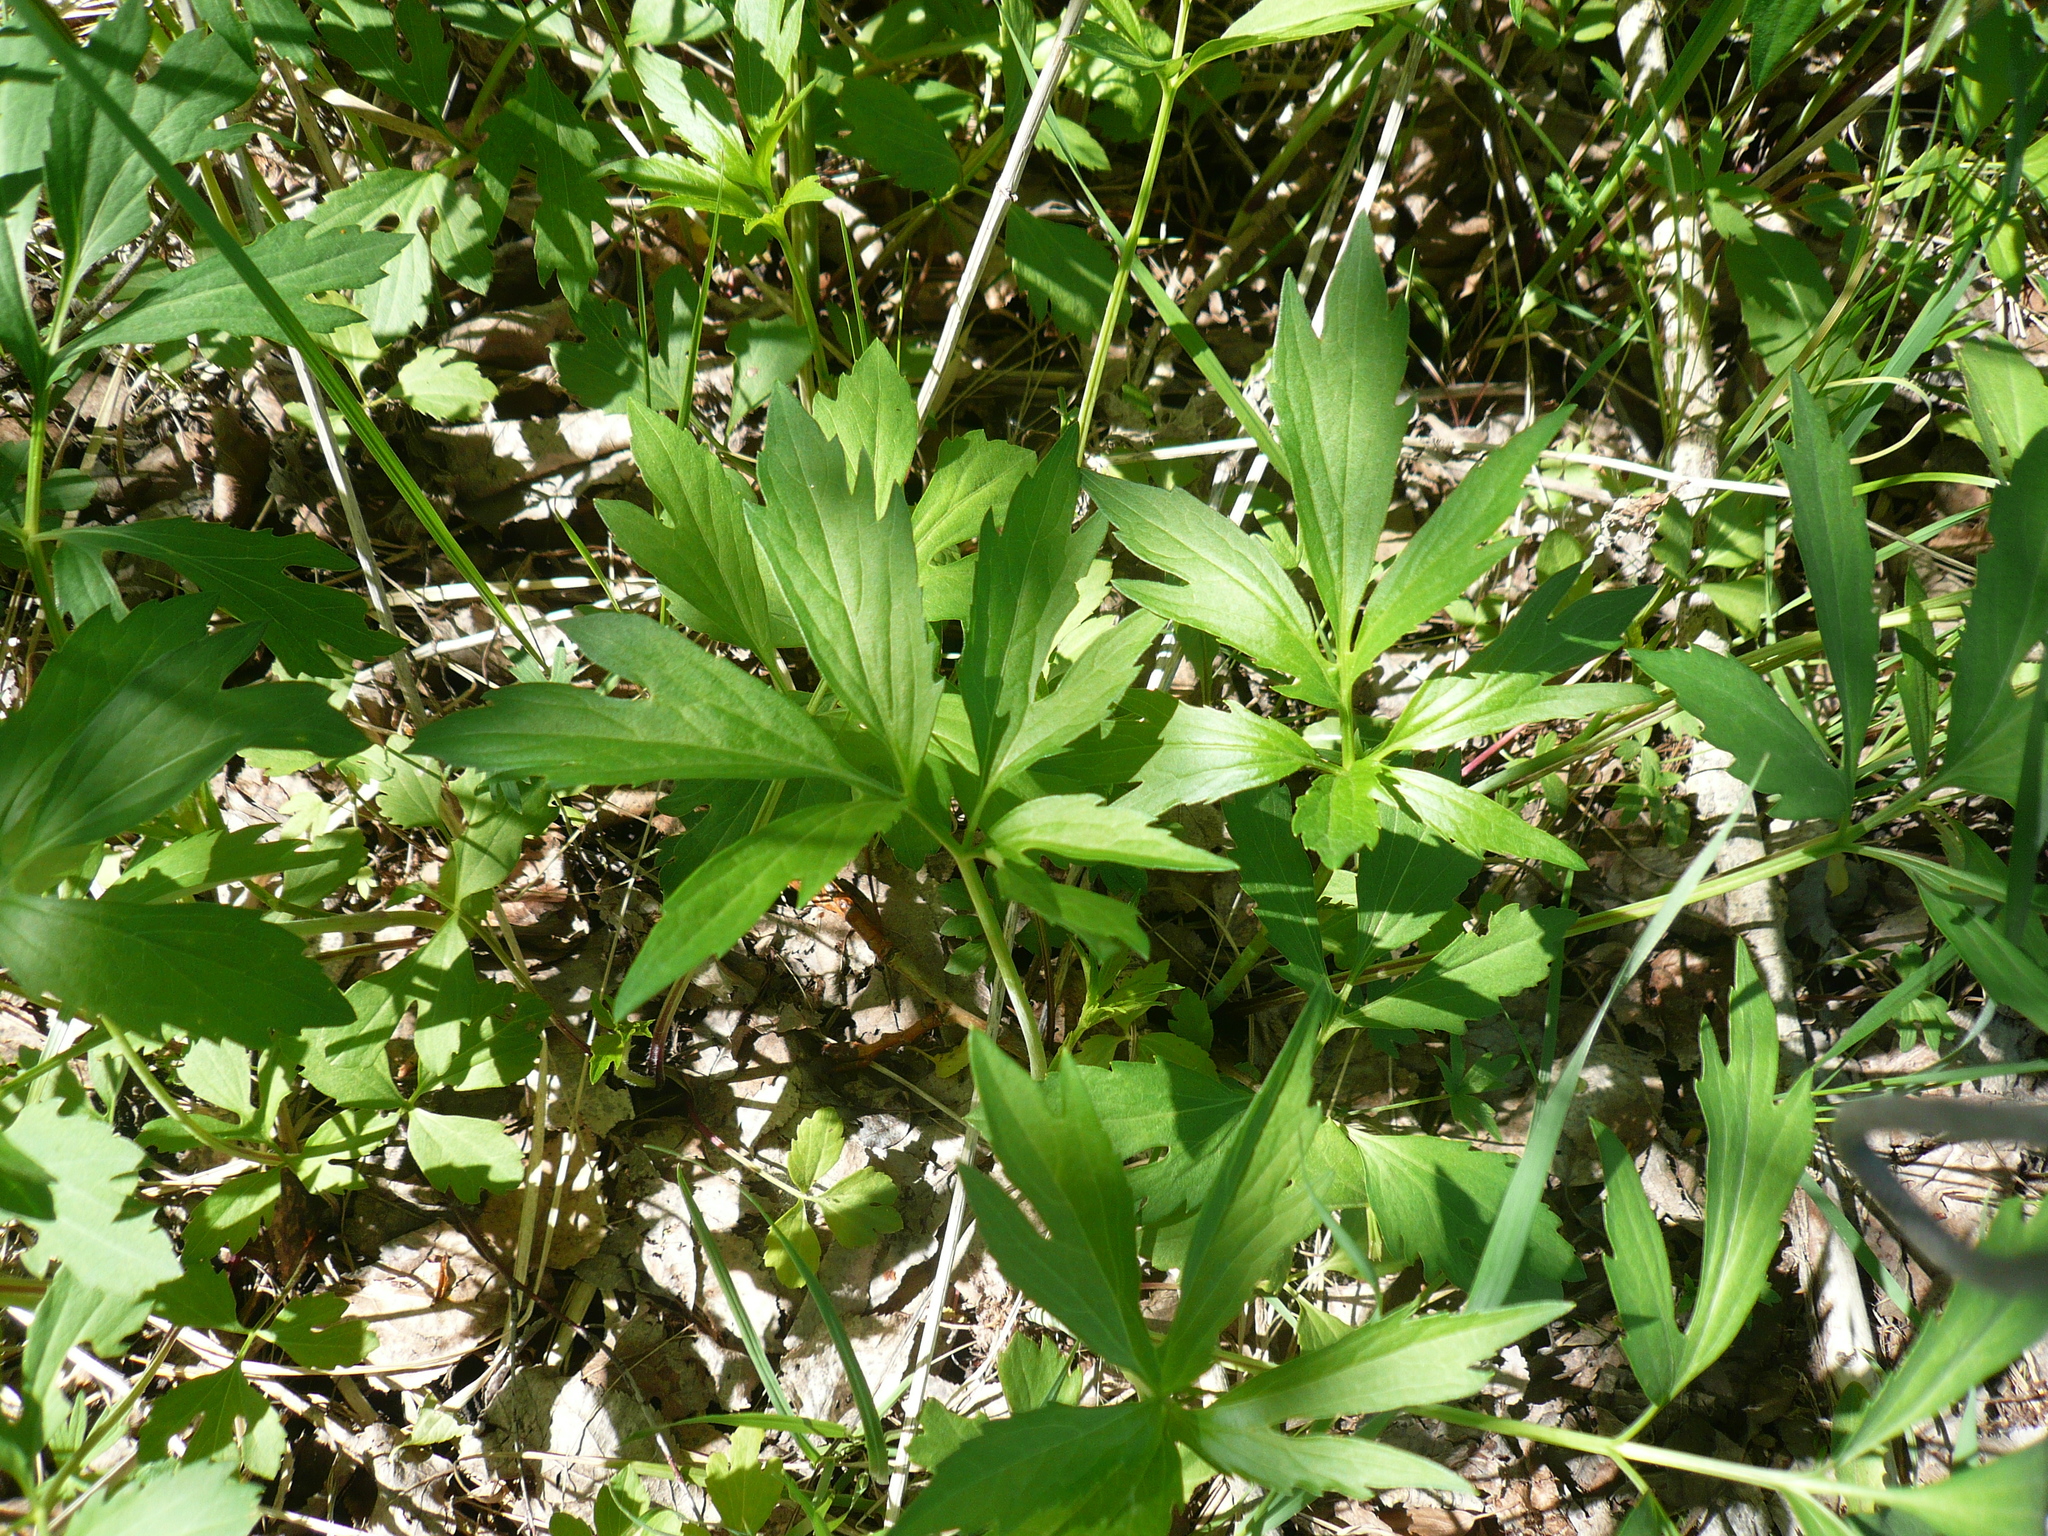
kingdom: Plantae
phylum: Tracheophyta
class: Magnoliopsida
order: Asterales
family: Asteraceae
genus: Rudbeckia
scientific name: Rudbeckia laciniata
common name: Coneflower
